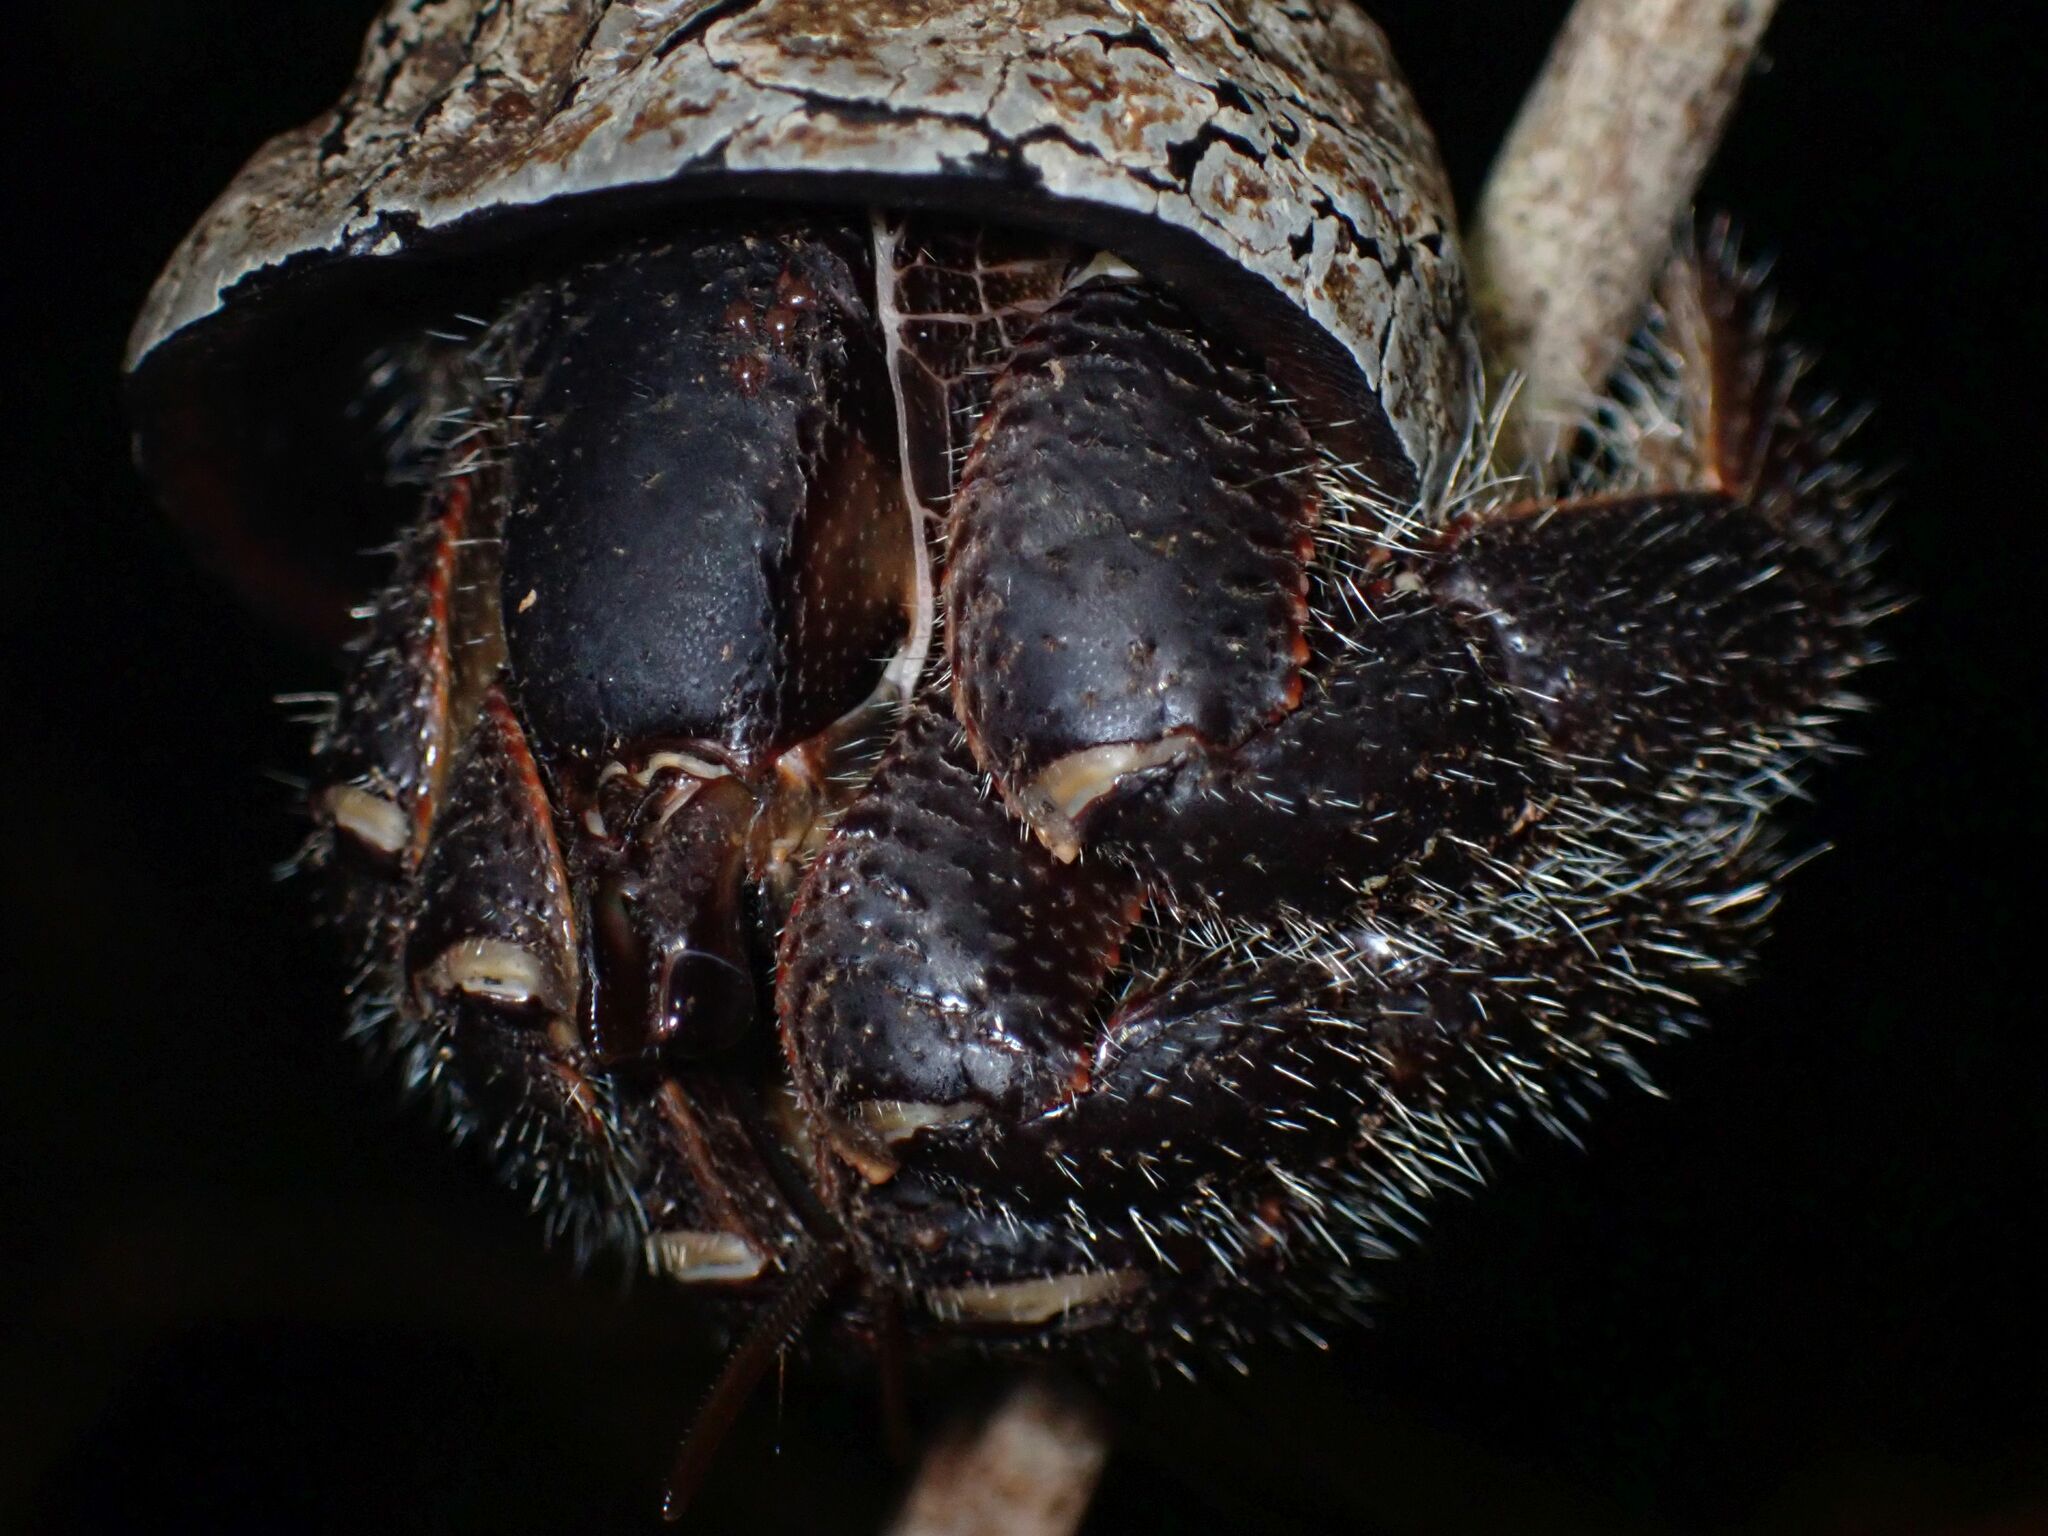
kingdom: Animalia
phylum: Arthropoda
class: Malacostraca
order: Decapoda
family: Coenobitidae
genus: Coenobita
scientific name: Coenobita spinosus
